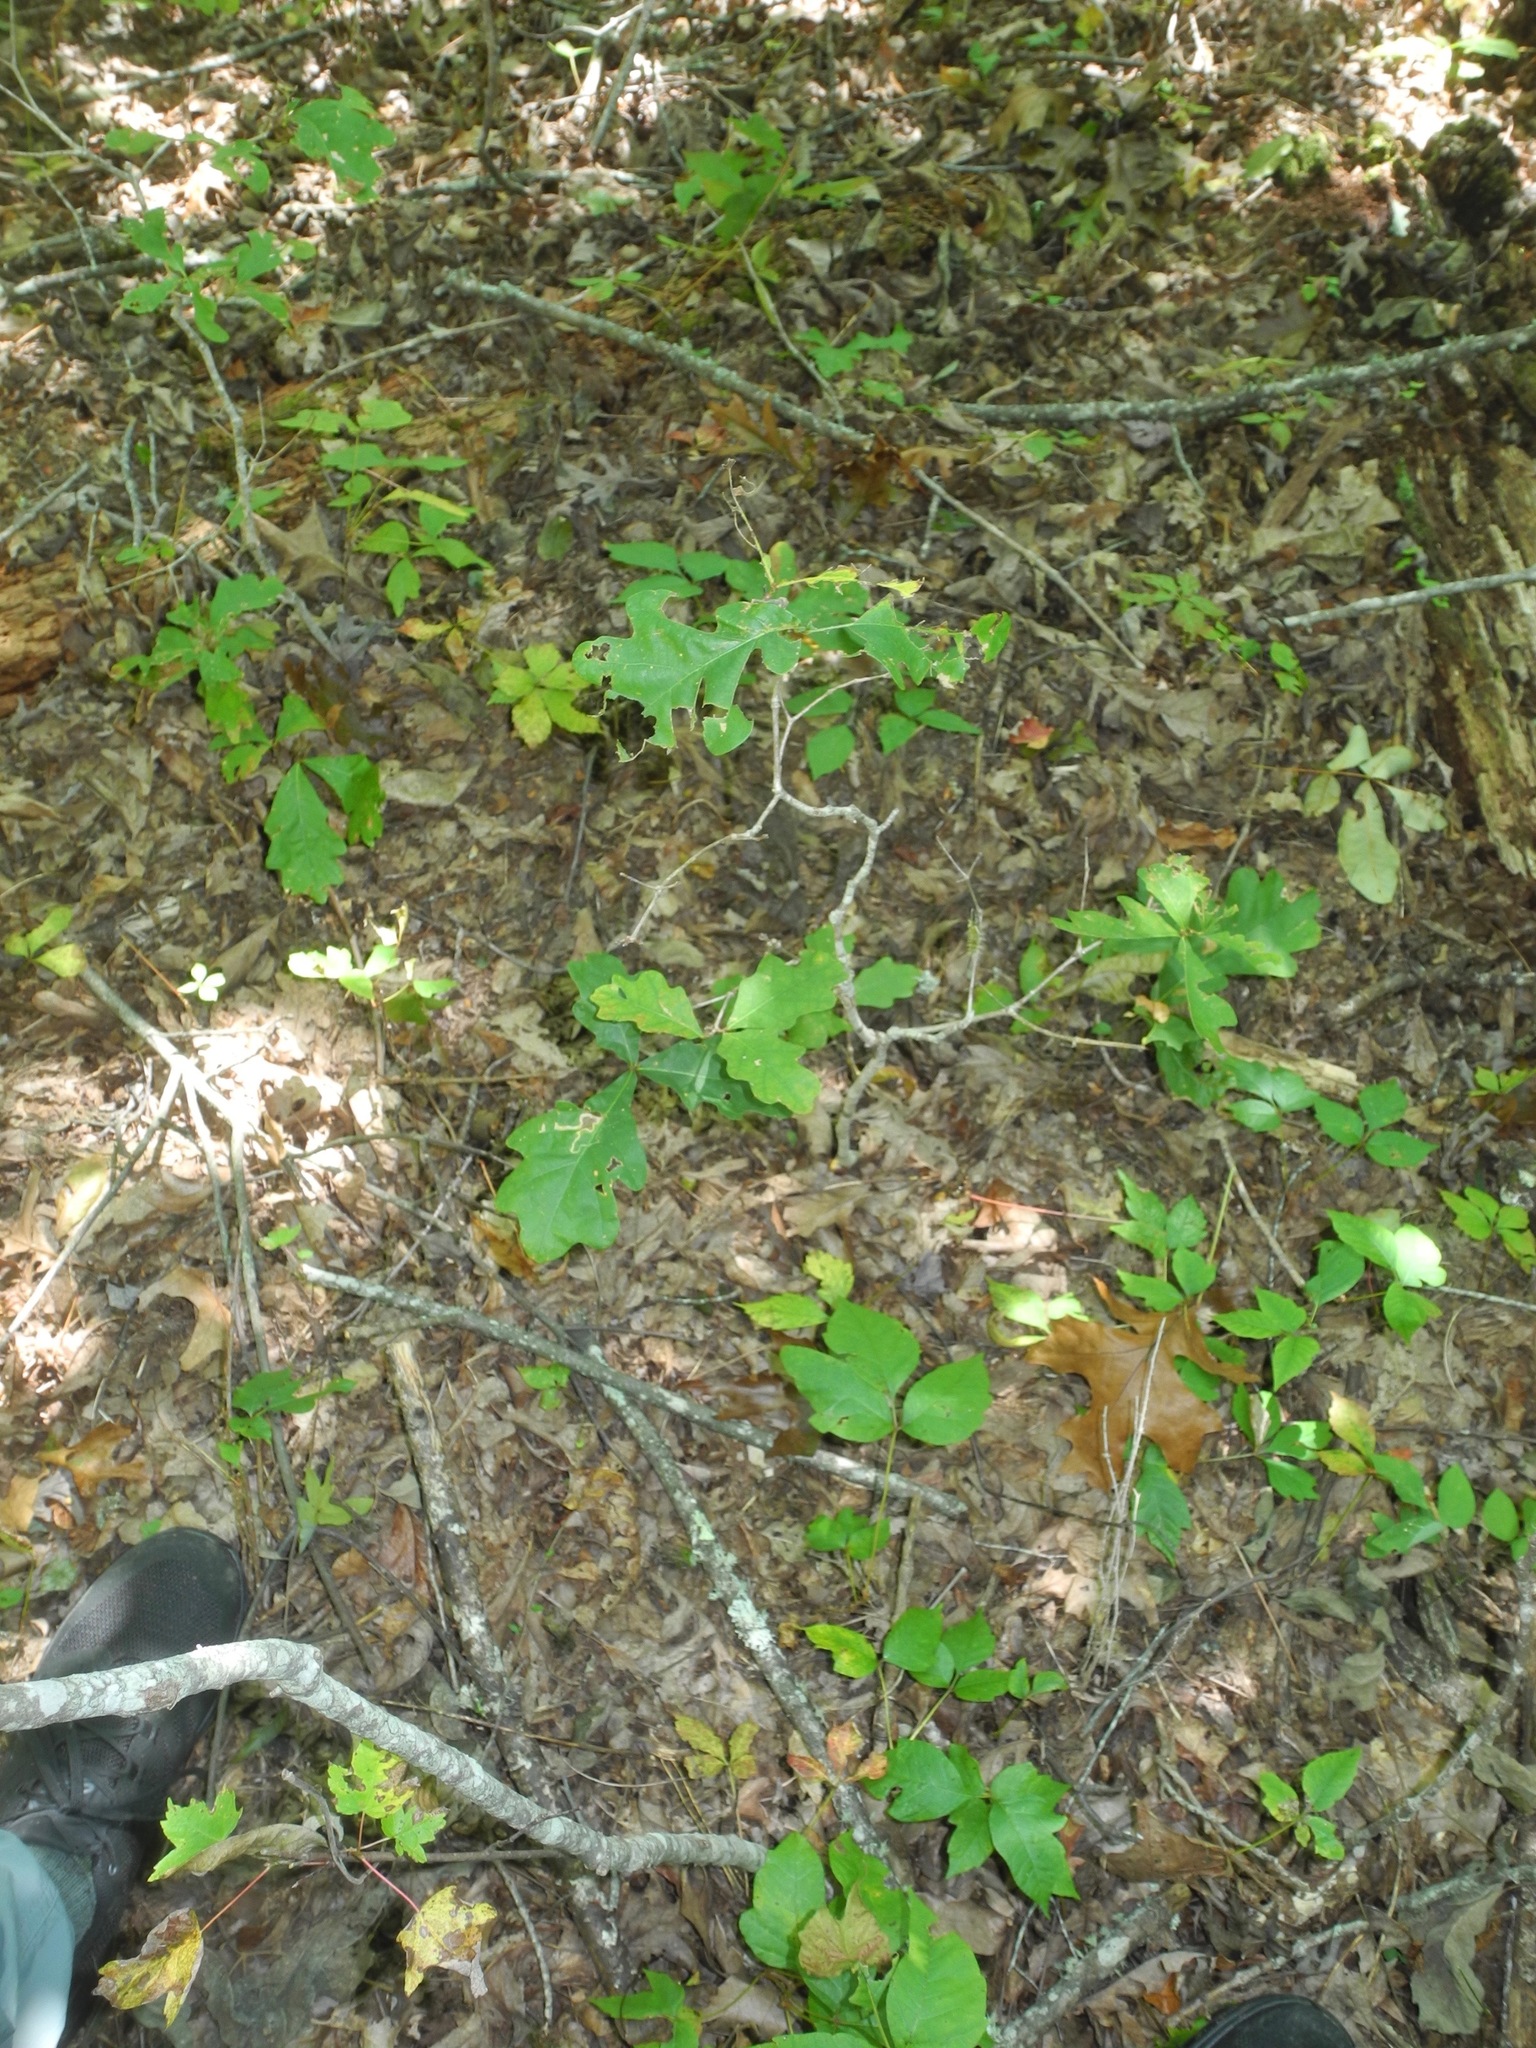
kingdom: Animalia
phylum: Arthropoda
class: Insecta
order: Lepidoptera
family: Erebidae
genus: Halysidota
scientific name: Halysidota tessellaris
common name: Banded tussock moth
